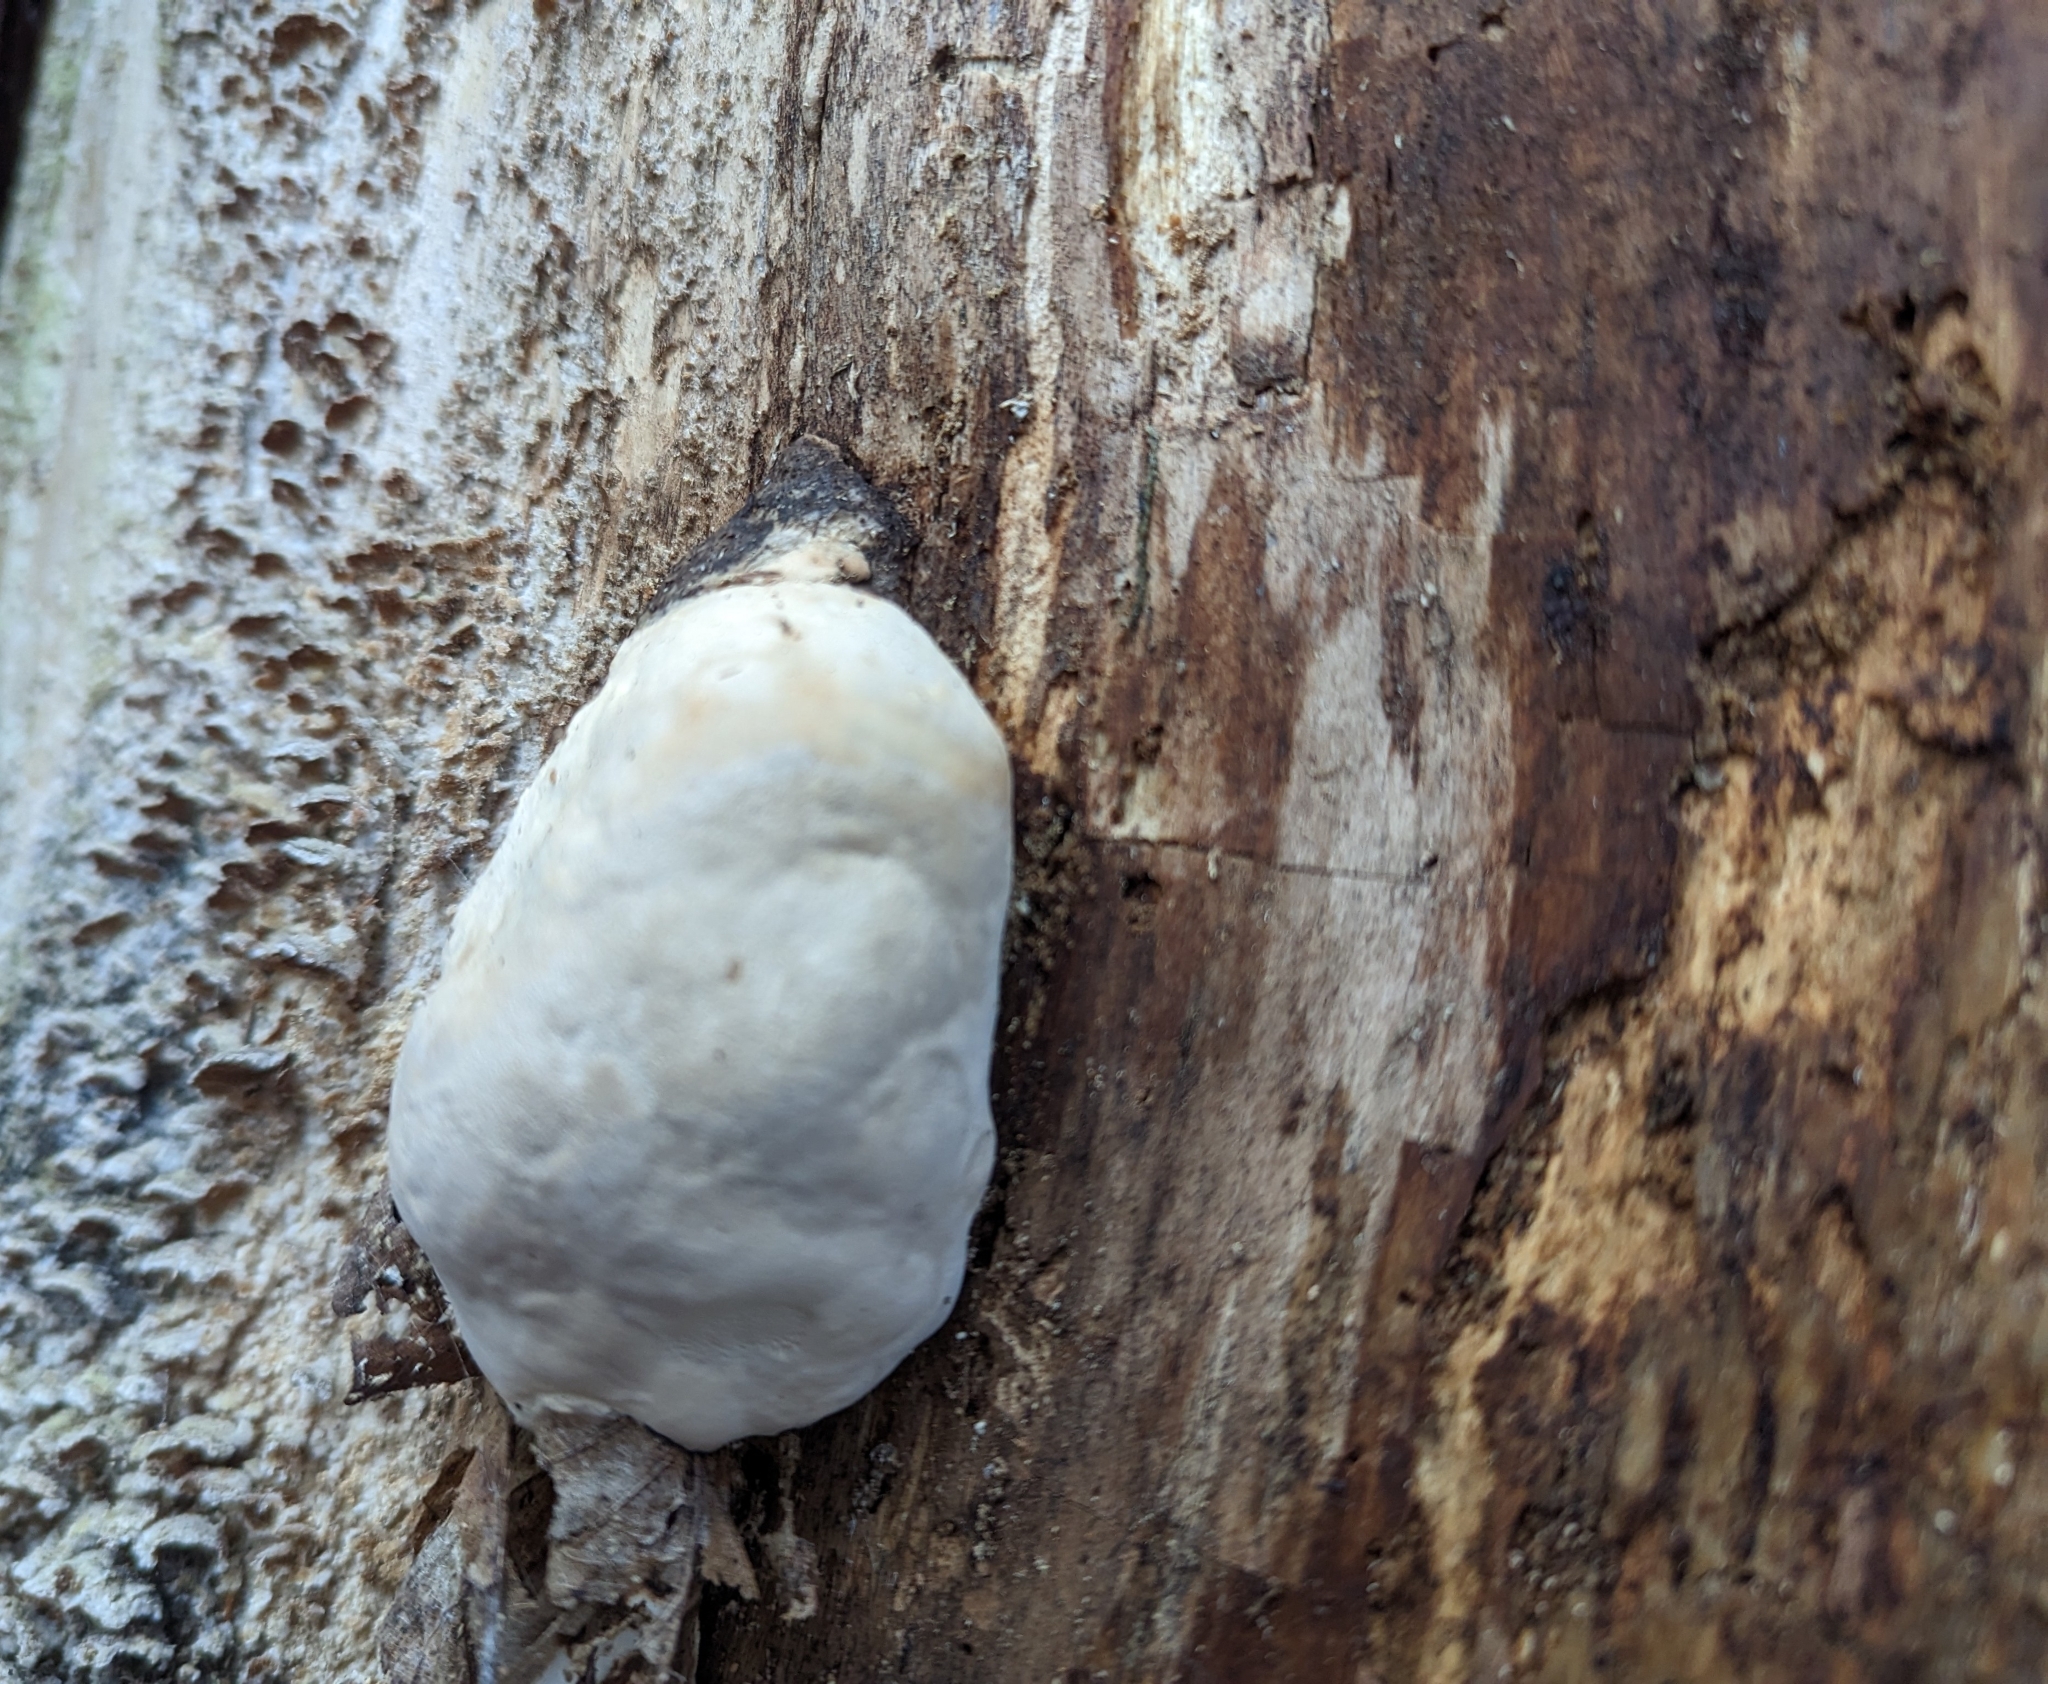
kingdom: Fungi
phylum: Basidiomycota
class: Agaricomycetes
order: Polyporales
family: Fomitopsidaceae
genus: Fomitopsis
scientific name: Fomitopsis ochracea
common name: American brown fomitopsis
